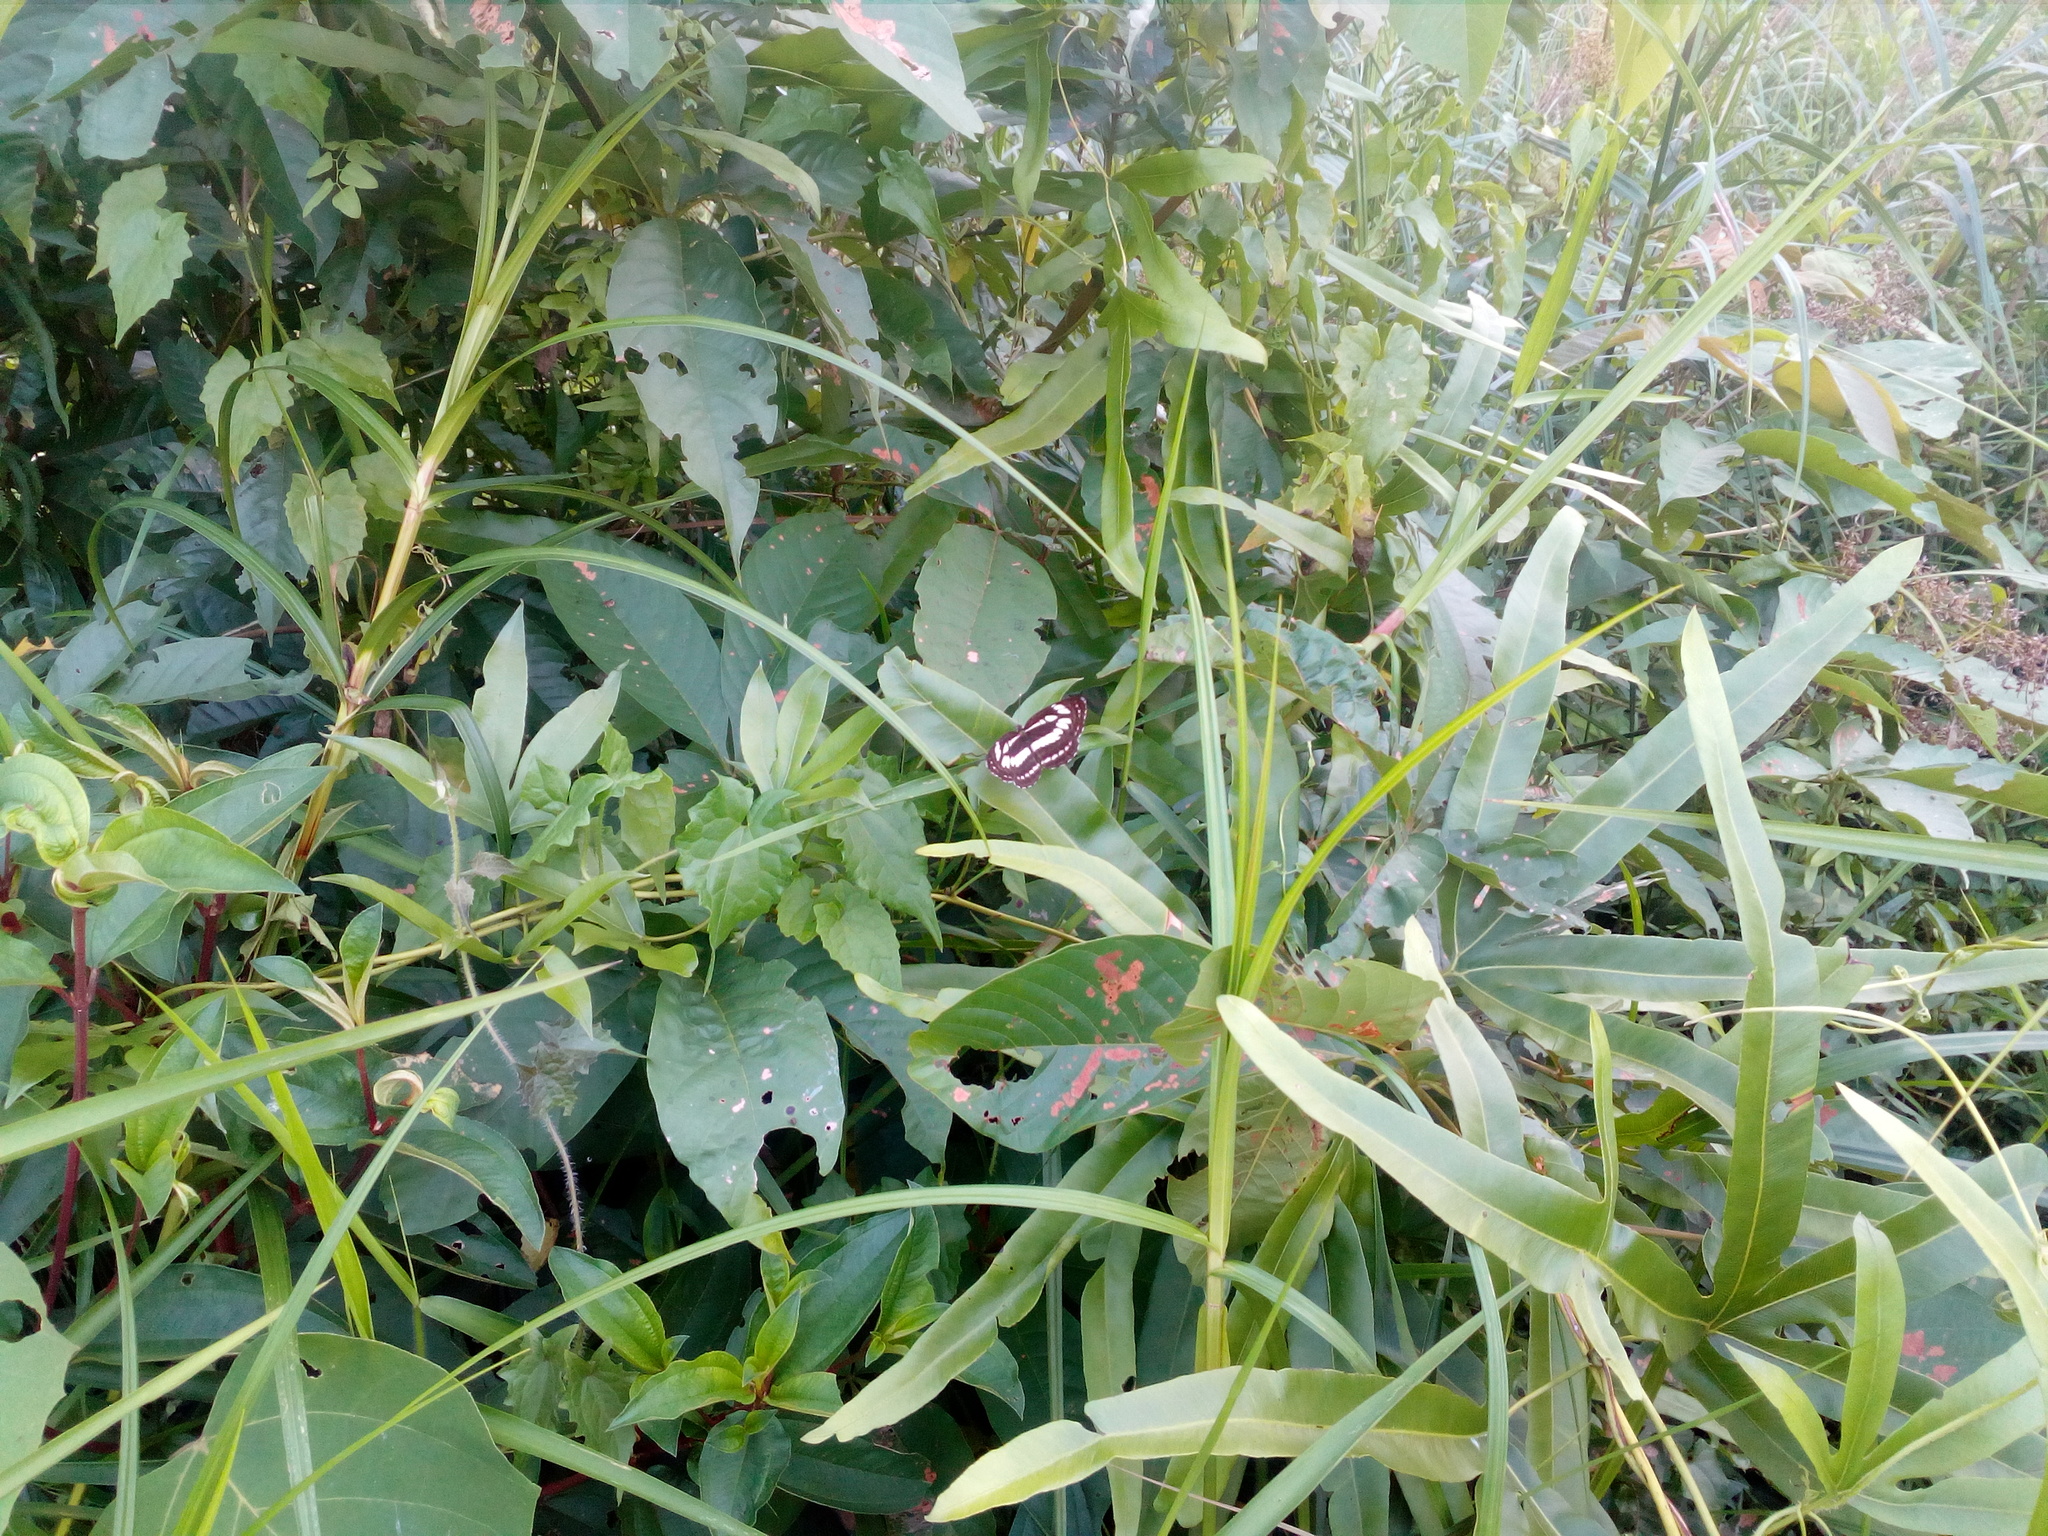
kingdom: Animalia
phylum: Arthropoda
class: Insecta
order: Lepidoptera
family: Nymphalidae
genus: Neptis
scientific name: Neptis hylas
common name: Common sailer
